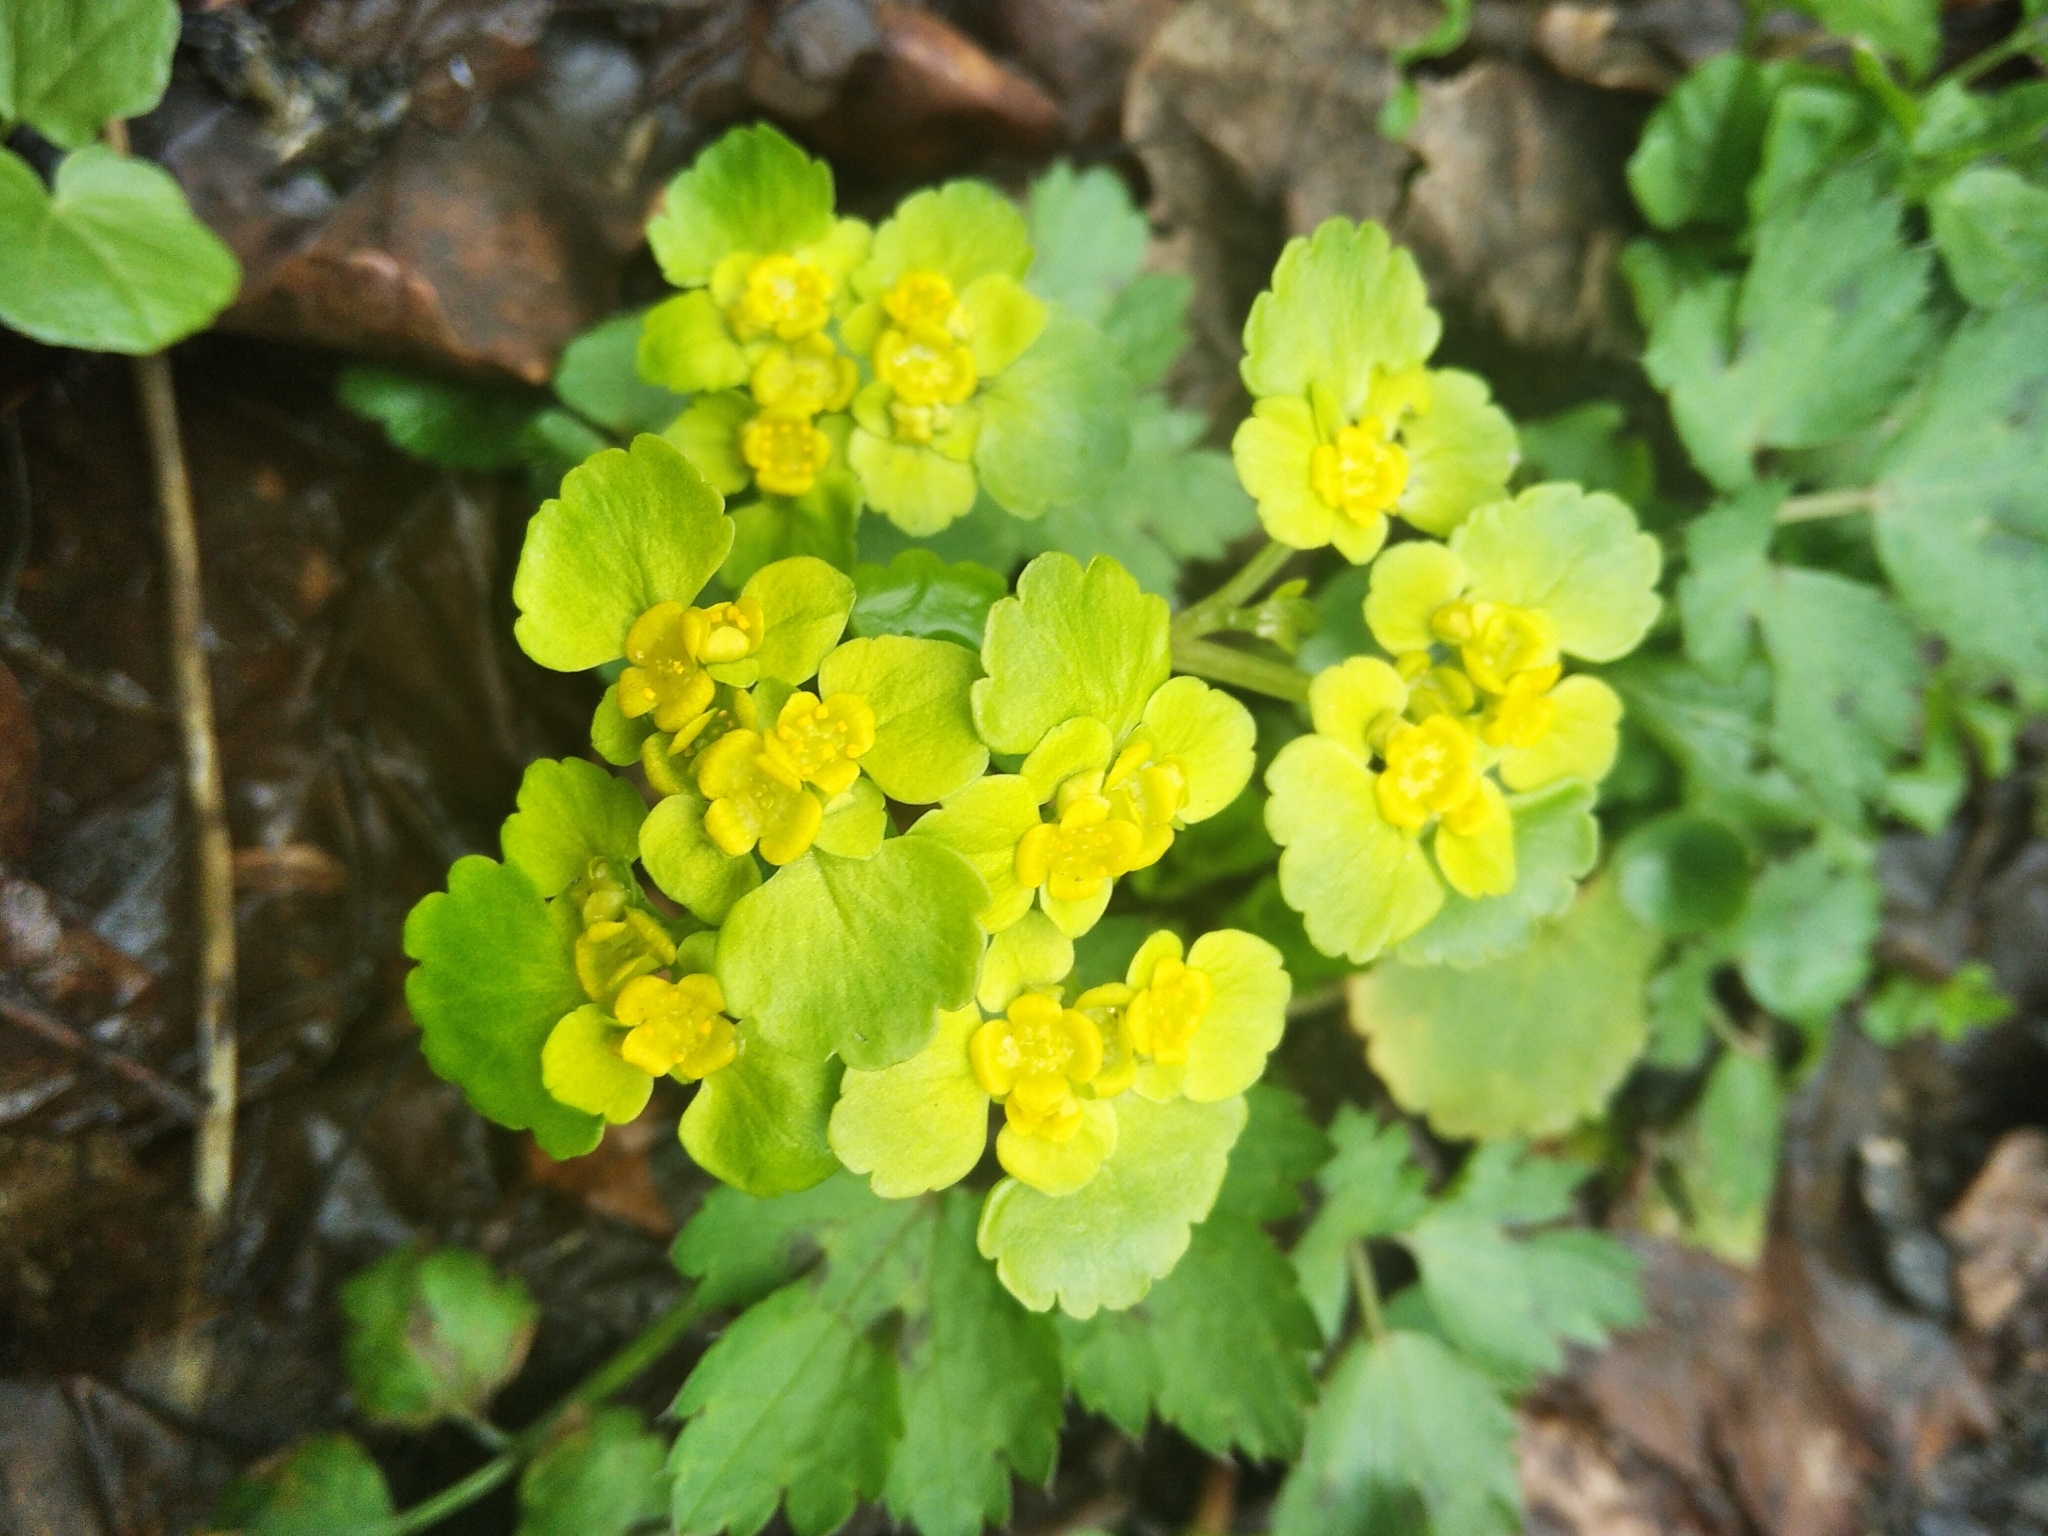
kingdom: Plantae
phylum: Tracheophyta
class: Magnoliopsida
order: Saxifragales
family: Saxifragaceae
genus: Chrysosplenium
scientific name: Chrysosplenium alternifolium
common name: Alternate-leaved golden-saxifrage
